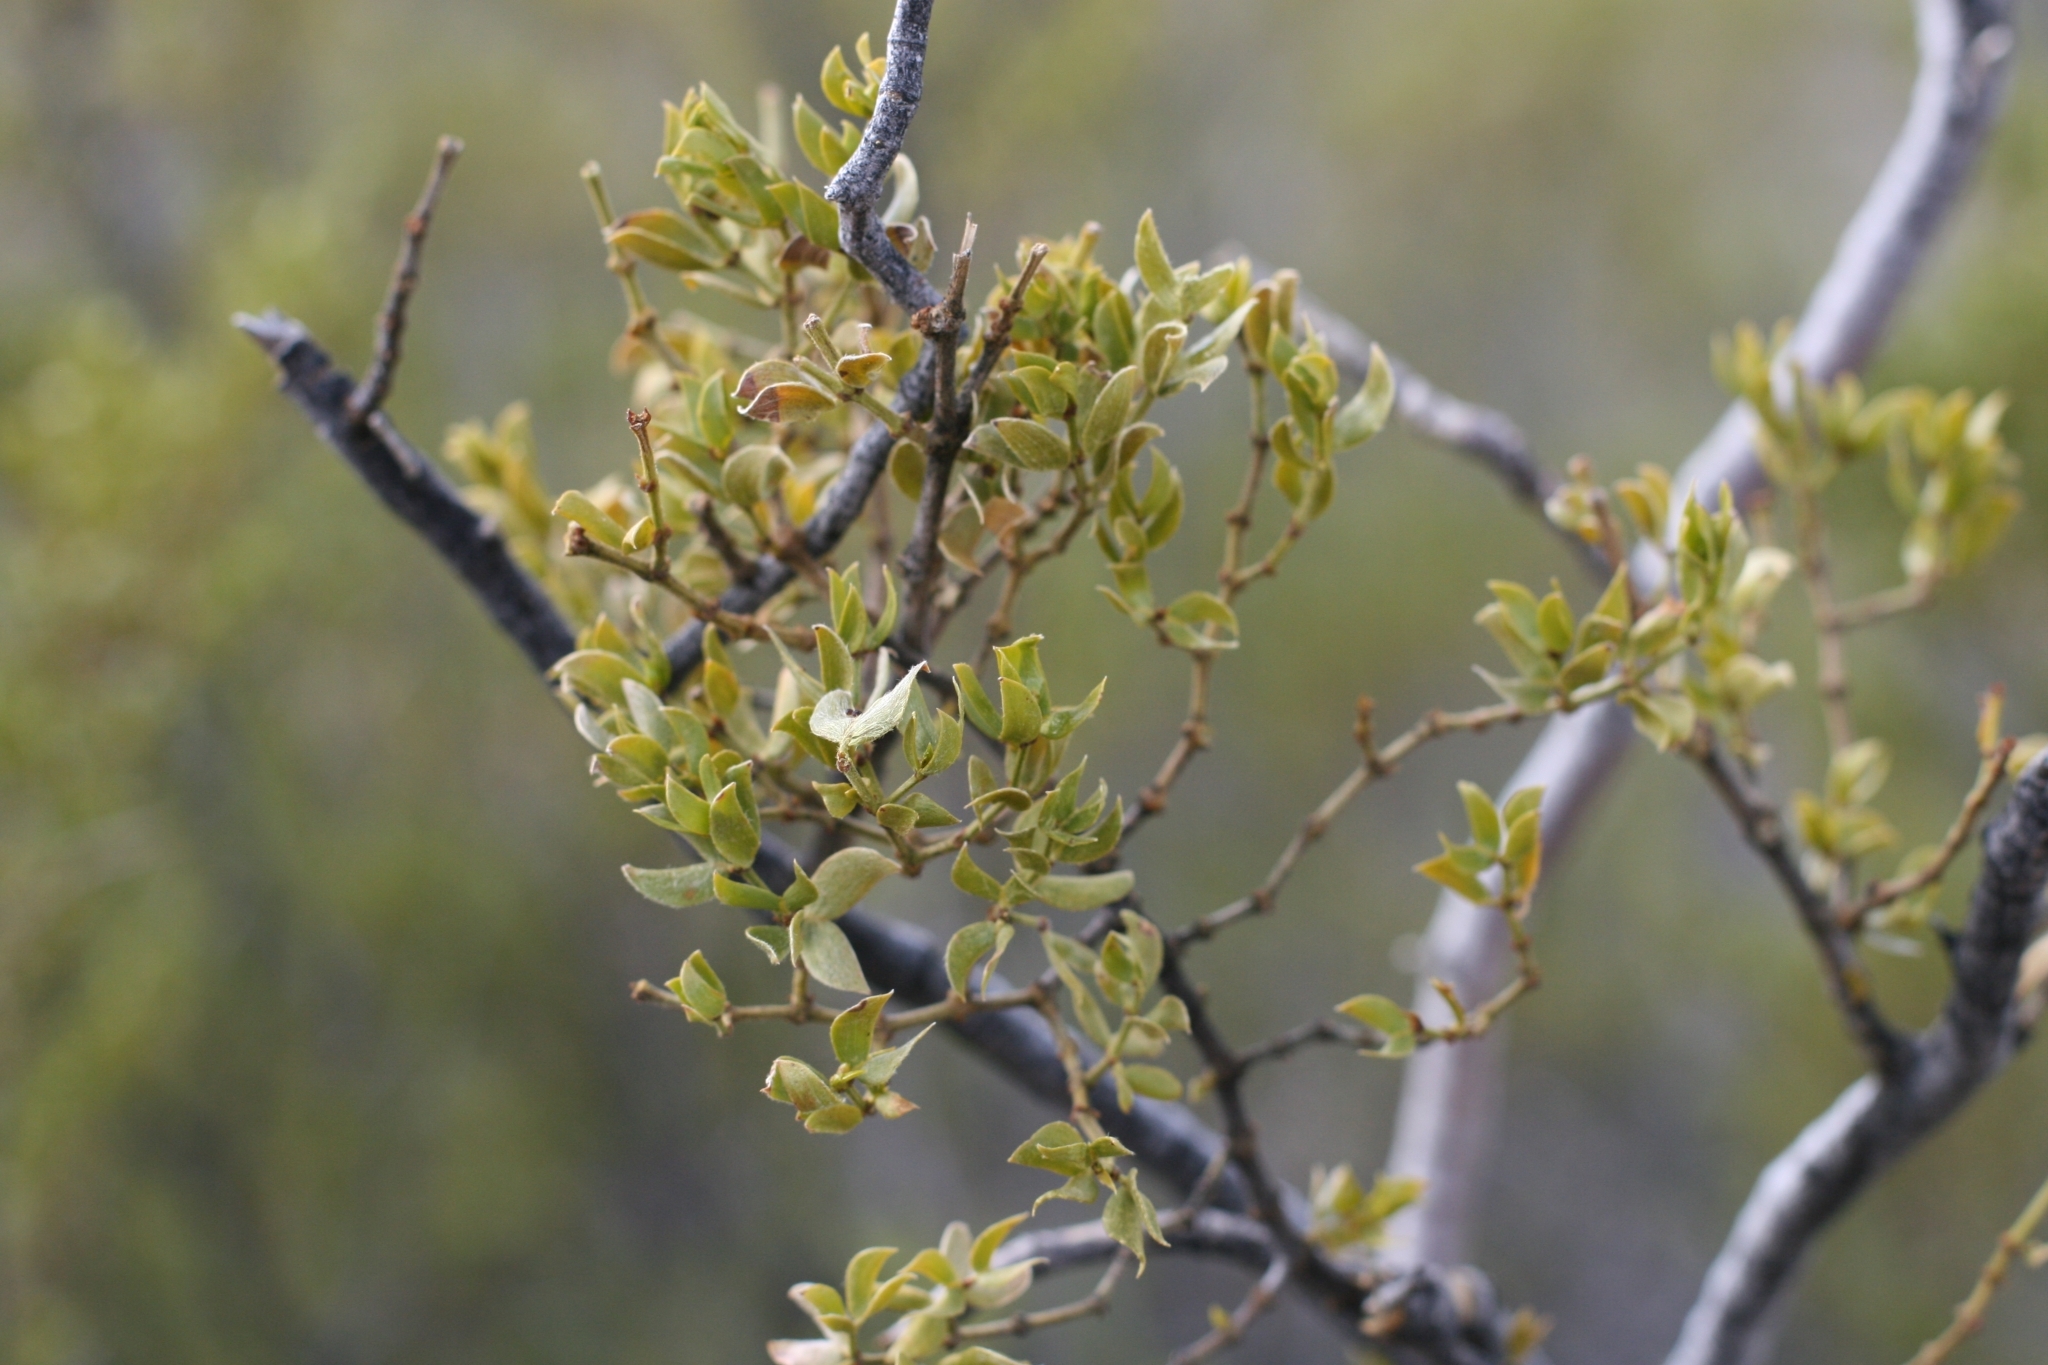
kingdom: Plantae
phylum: Tracheophyta
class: Magnoliopsida
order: Zygophyllales
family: Zygophyllaceae
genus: Larrea
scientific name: Larrea tridentata
